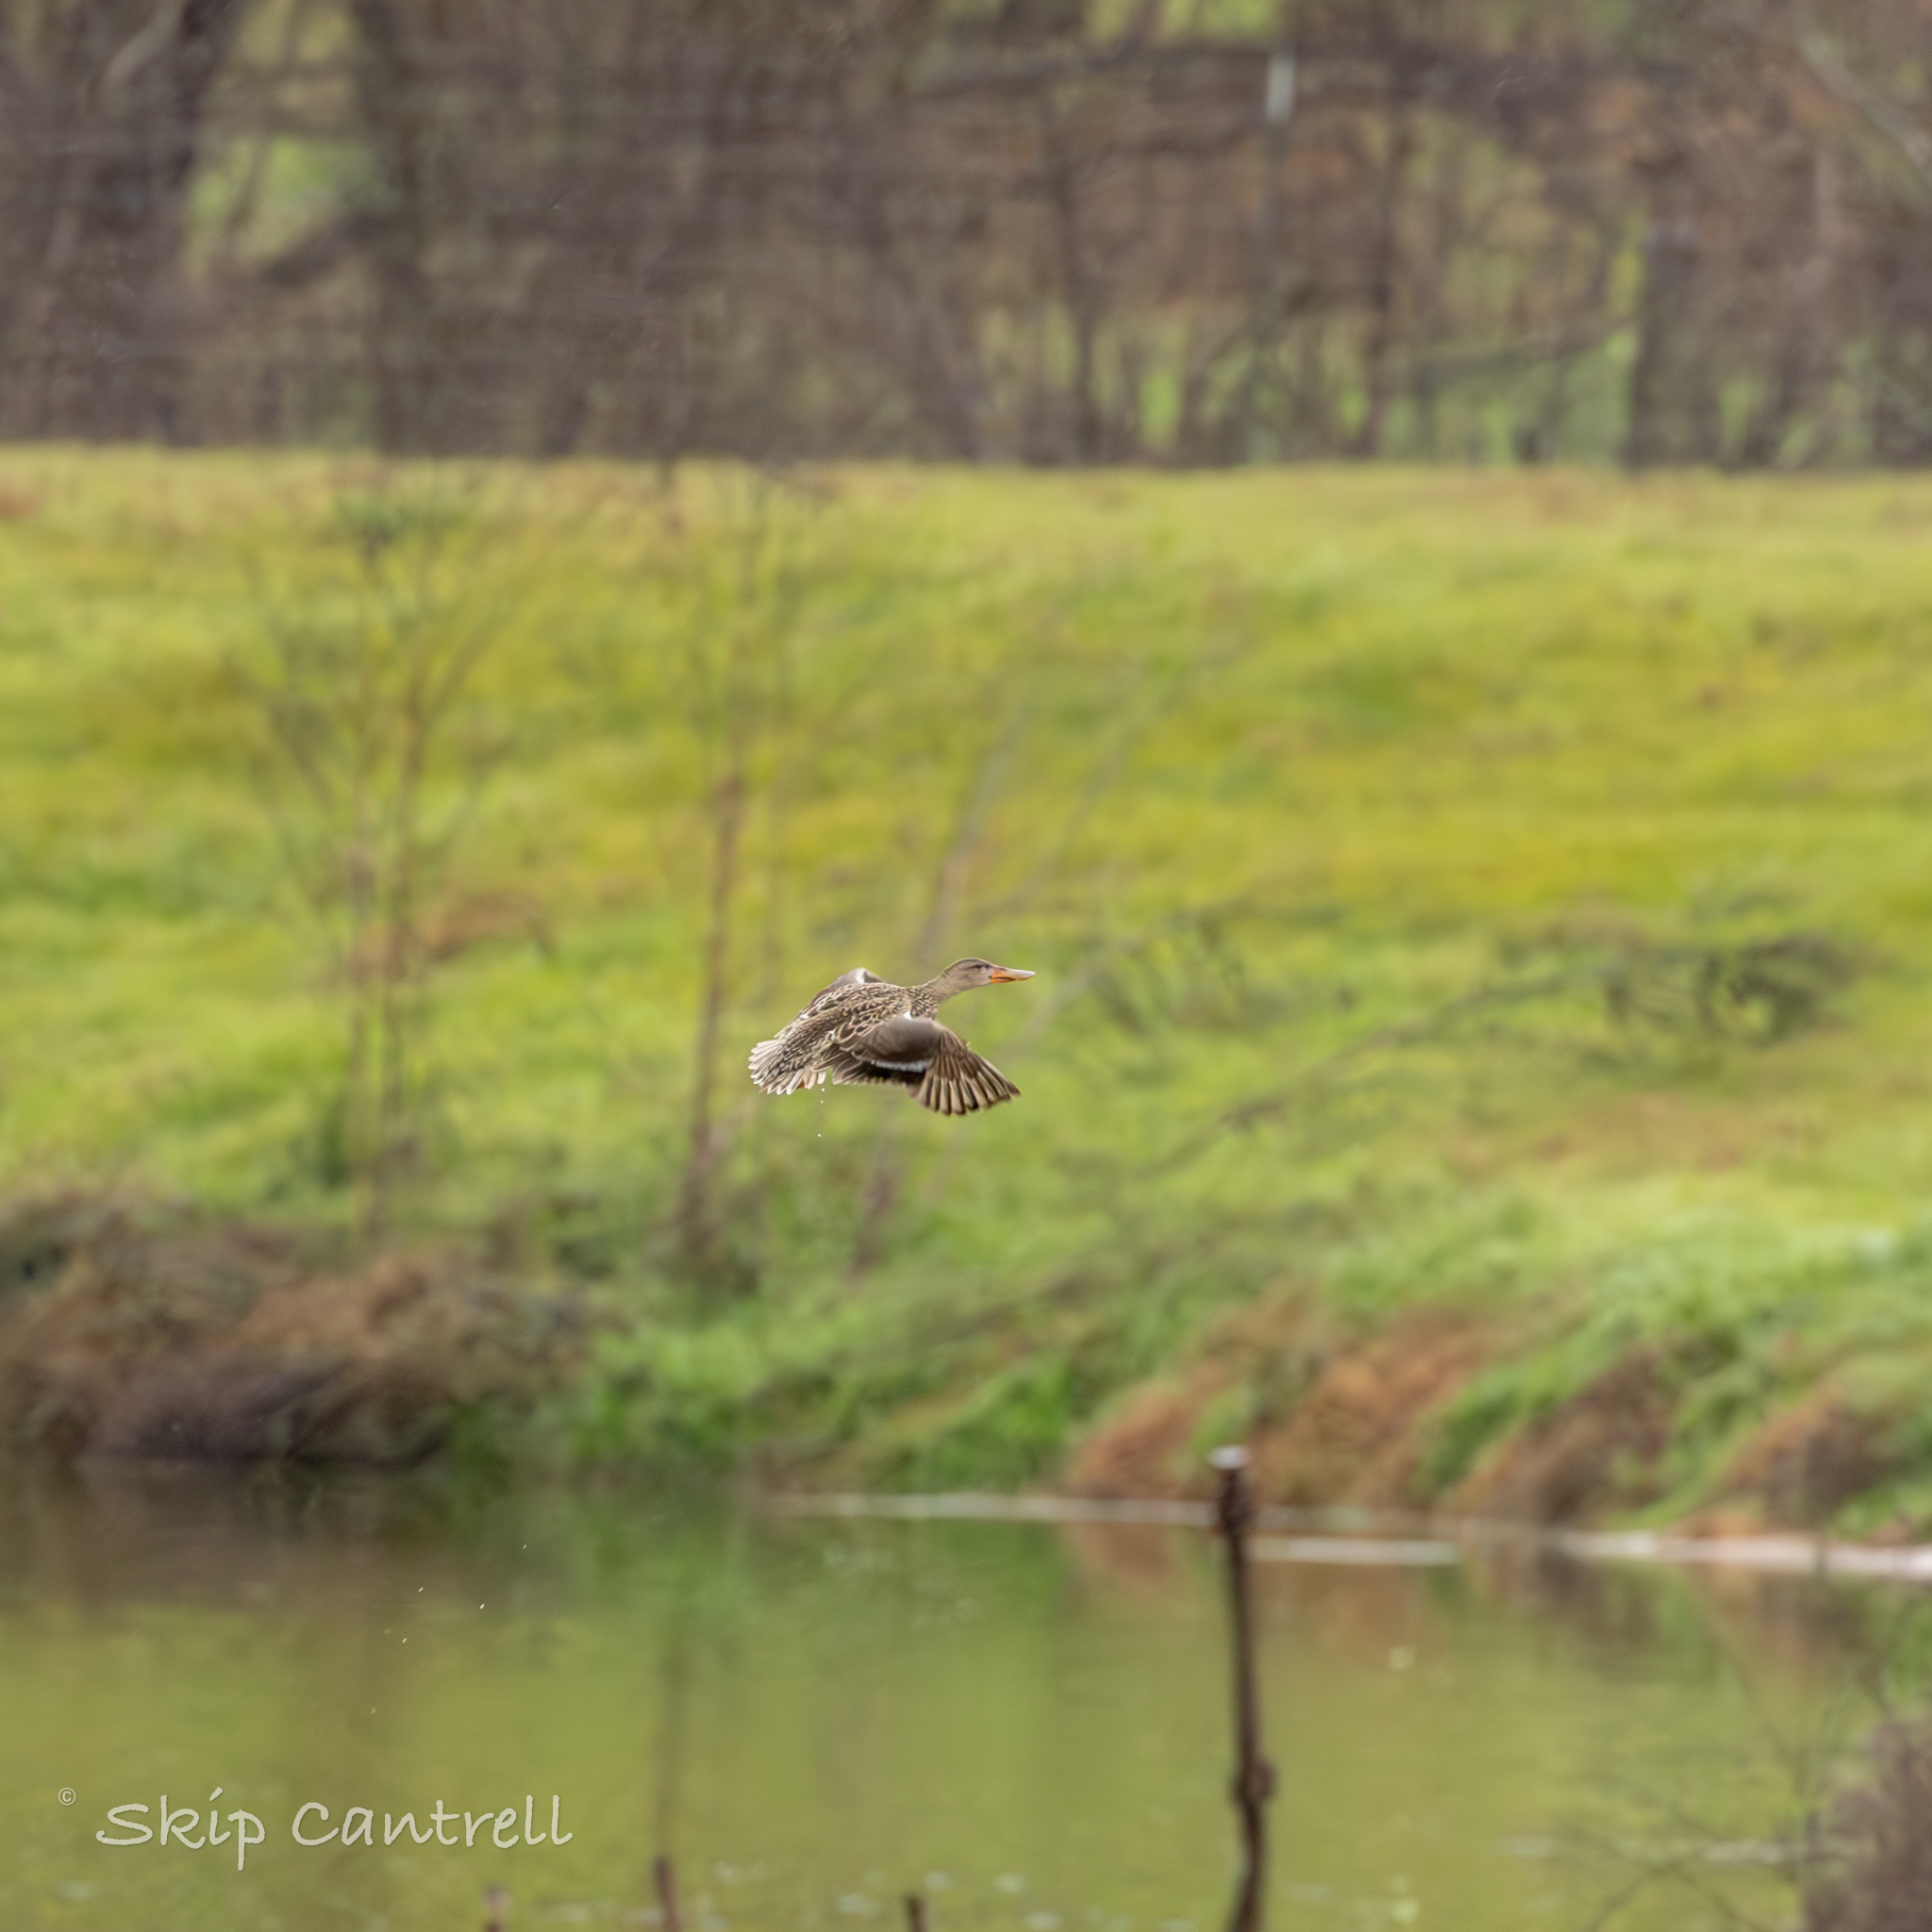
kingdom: Animalia
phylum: Chordata
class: Aves
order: Anseriformes
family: Anatidae
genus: Spatula
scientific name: Spatula clypeata
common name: Northern shoveler
